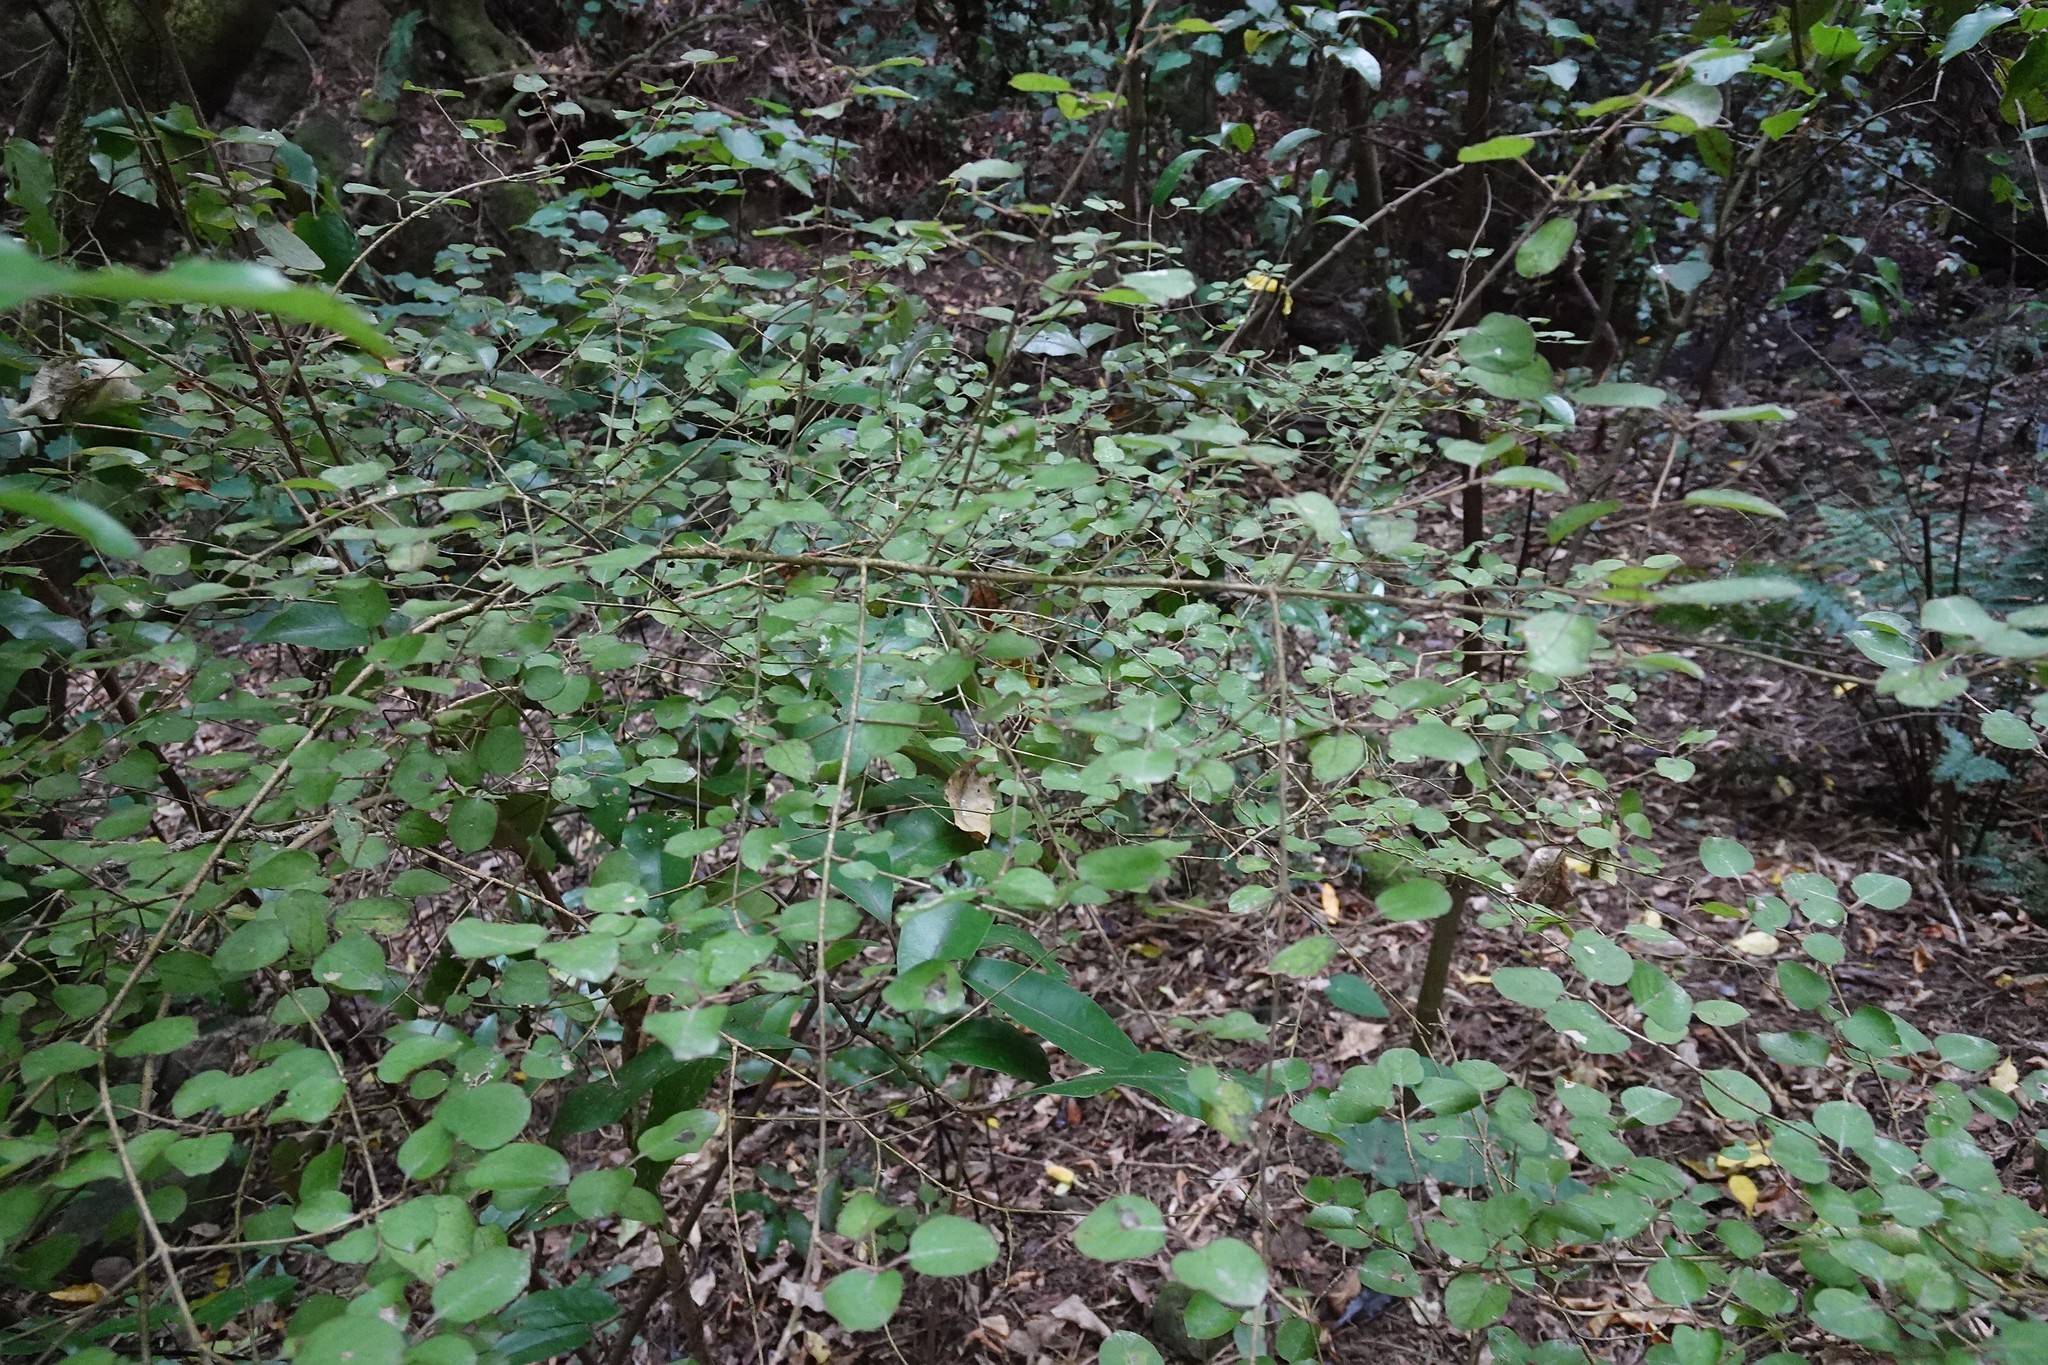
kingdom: Plantae
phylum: Tracheophyta
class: Magnoliopsida
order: Gentianales
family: Rubiaceae
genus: Coprosma
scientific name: Coprosma rotundifolia
